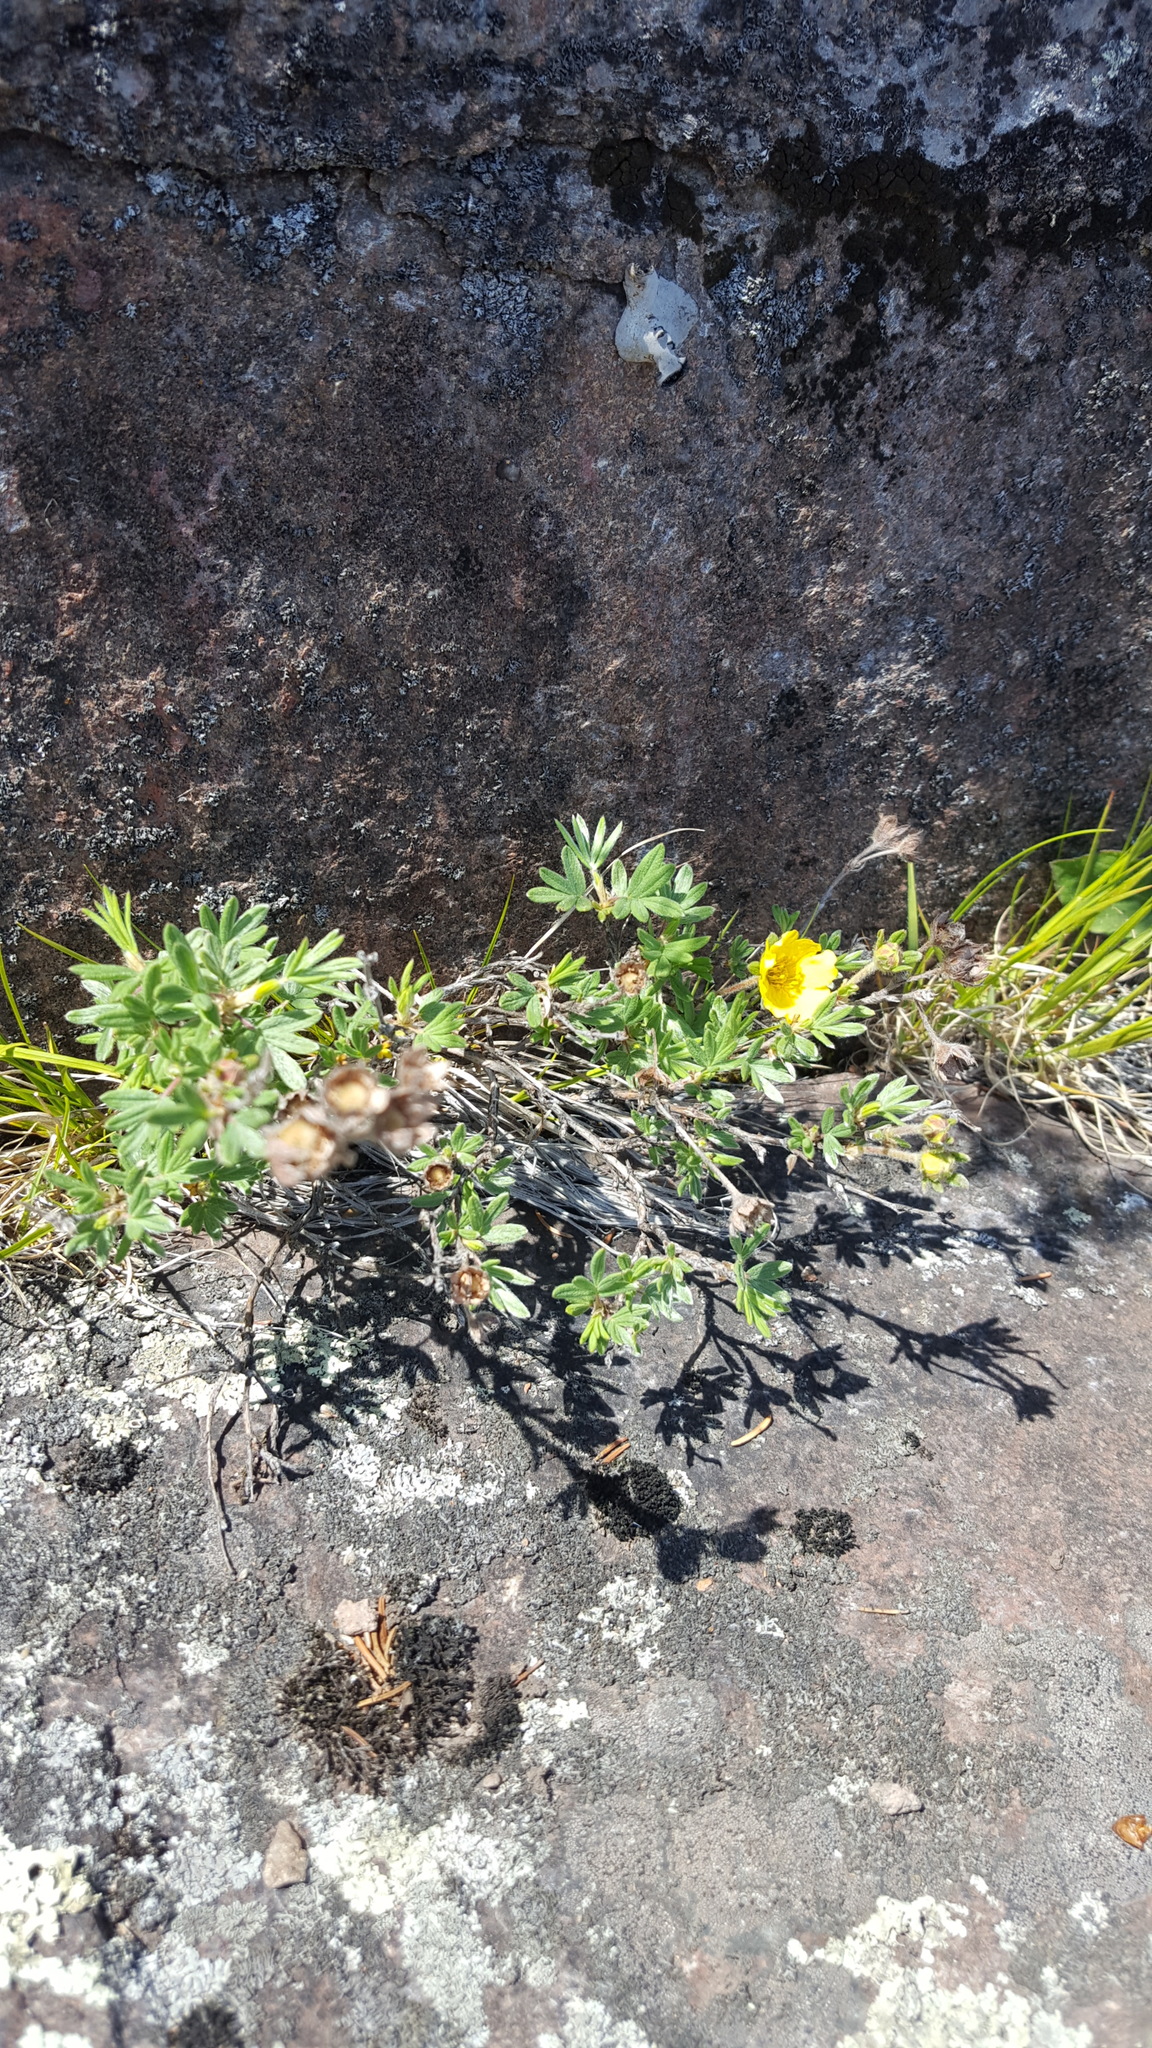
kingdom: Plantae
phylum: Tracheophyta
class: Magnoliopsida
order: Rosales
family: Rosaceae
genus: Dasiphora
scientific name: Dasiphora fruticosa
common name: Shrubby cinquefoil
